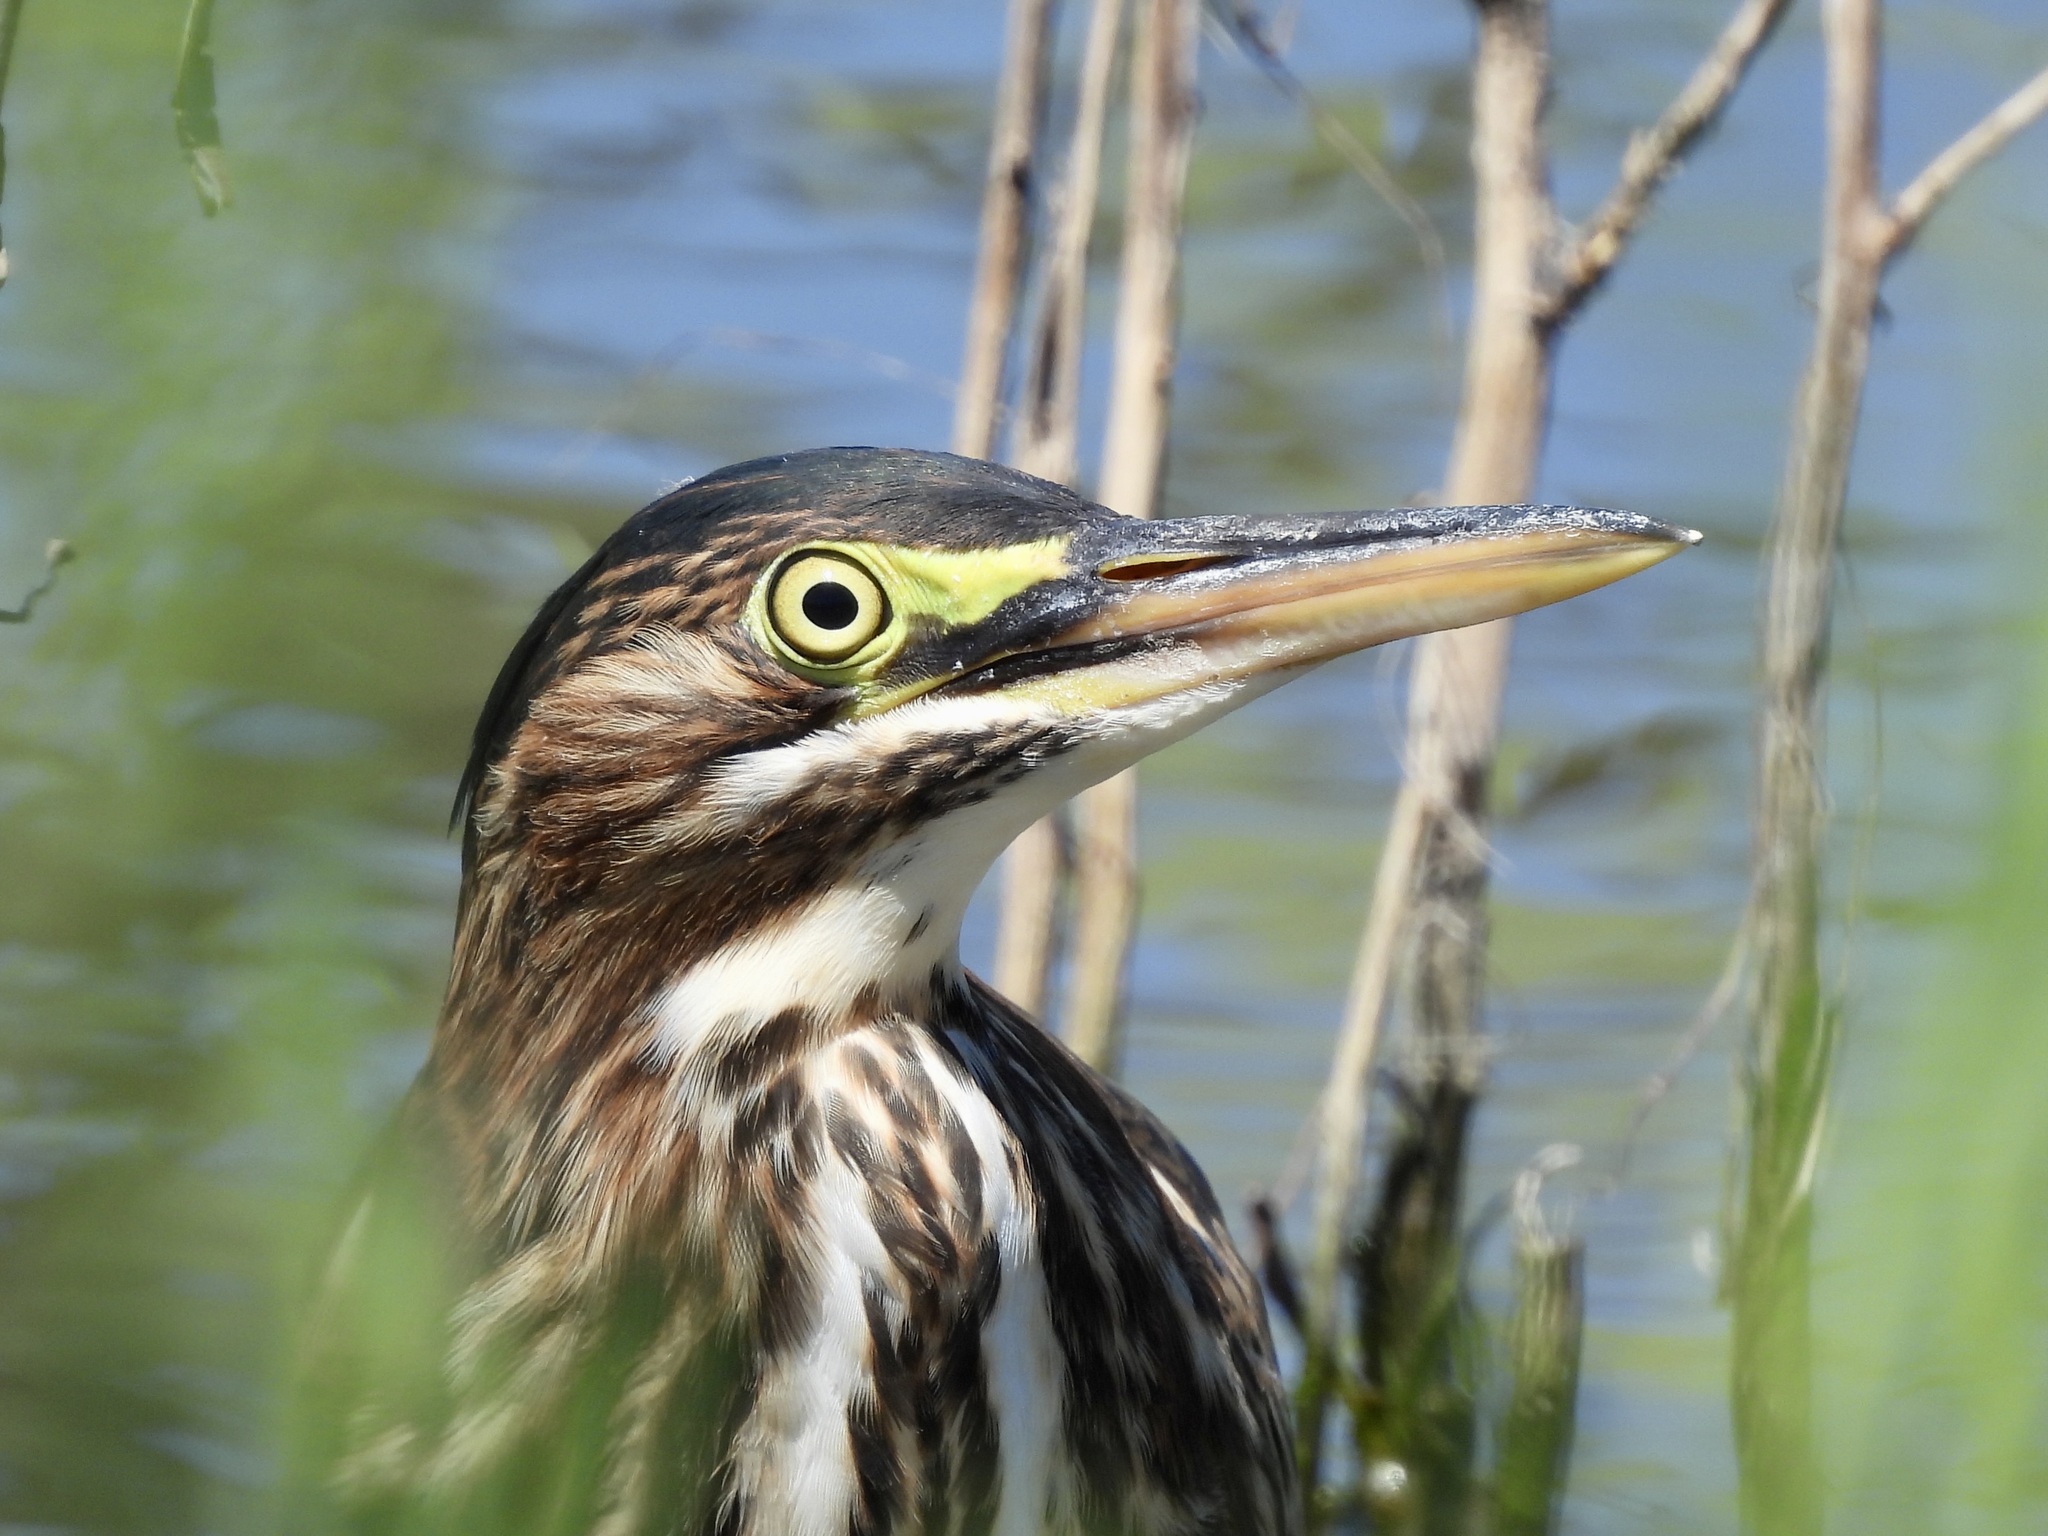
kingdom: Animalia
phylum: Chordata
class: Aves
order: Pelecaniformes
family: Ardeidae
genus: Butorides
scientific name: Butorides virescens
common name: Green heron
